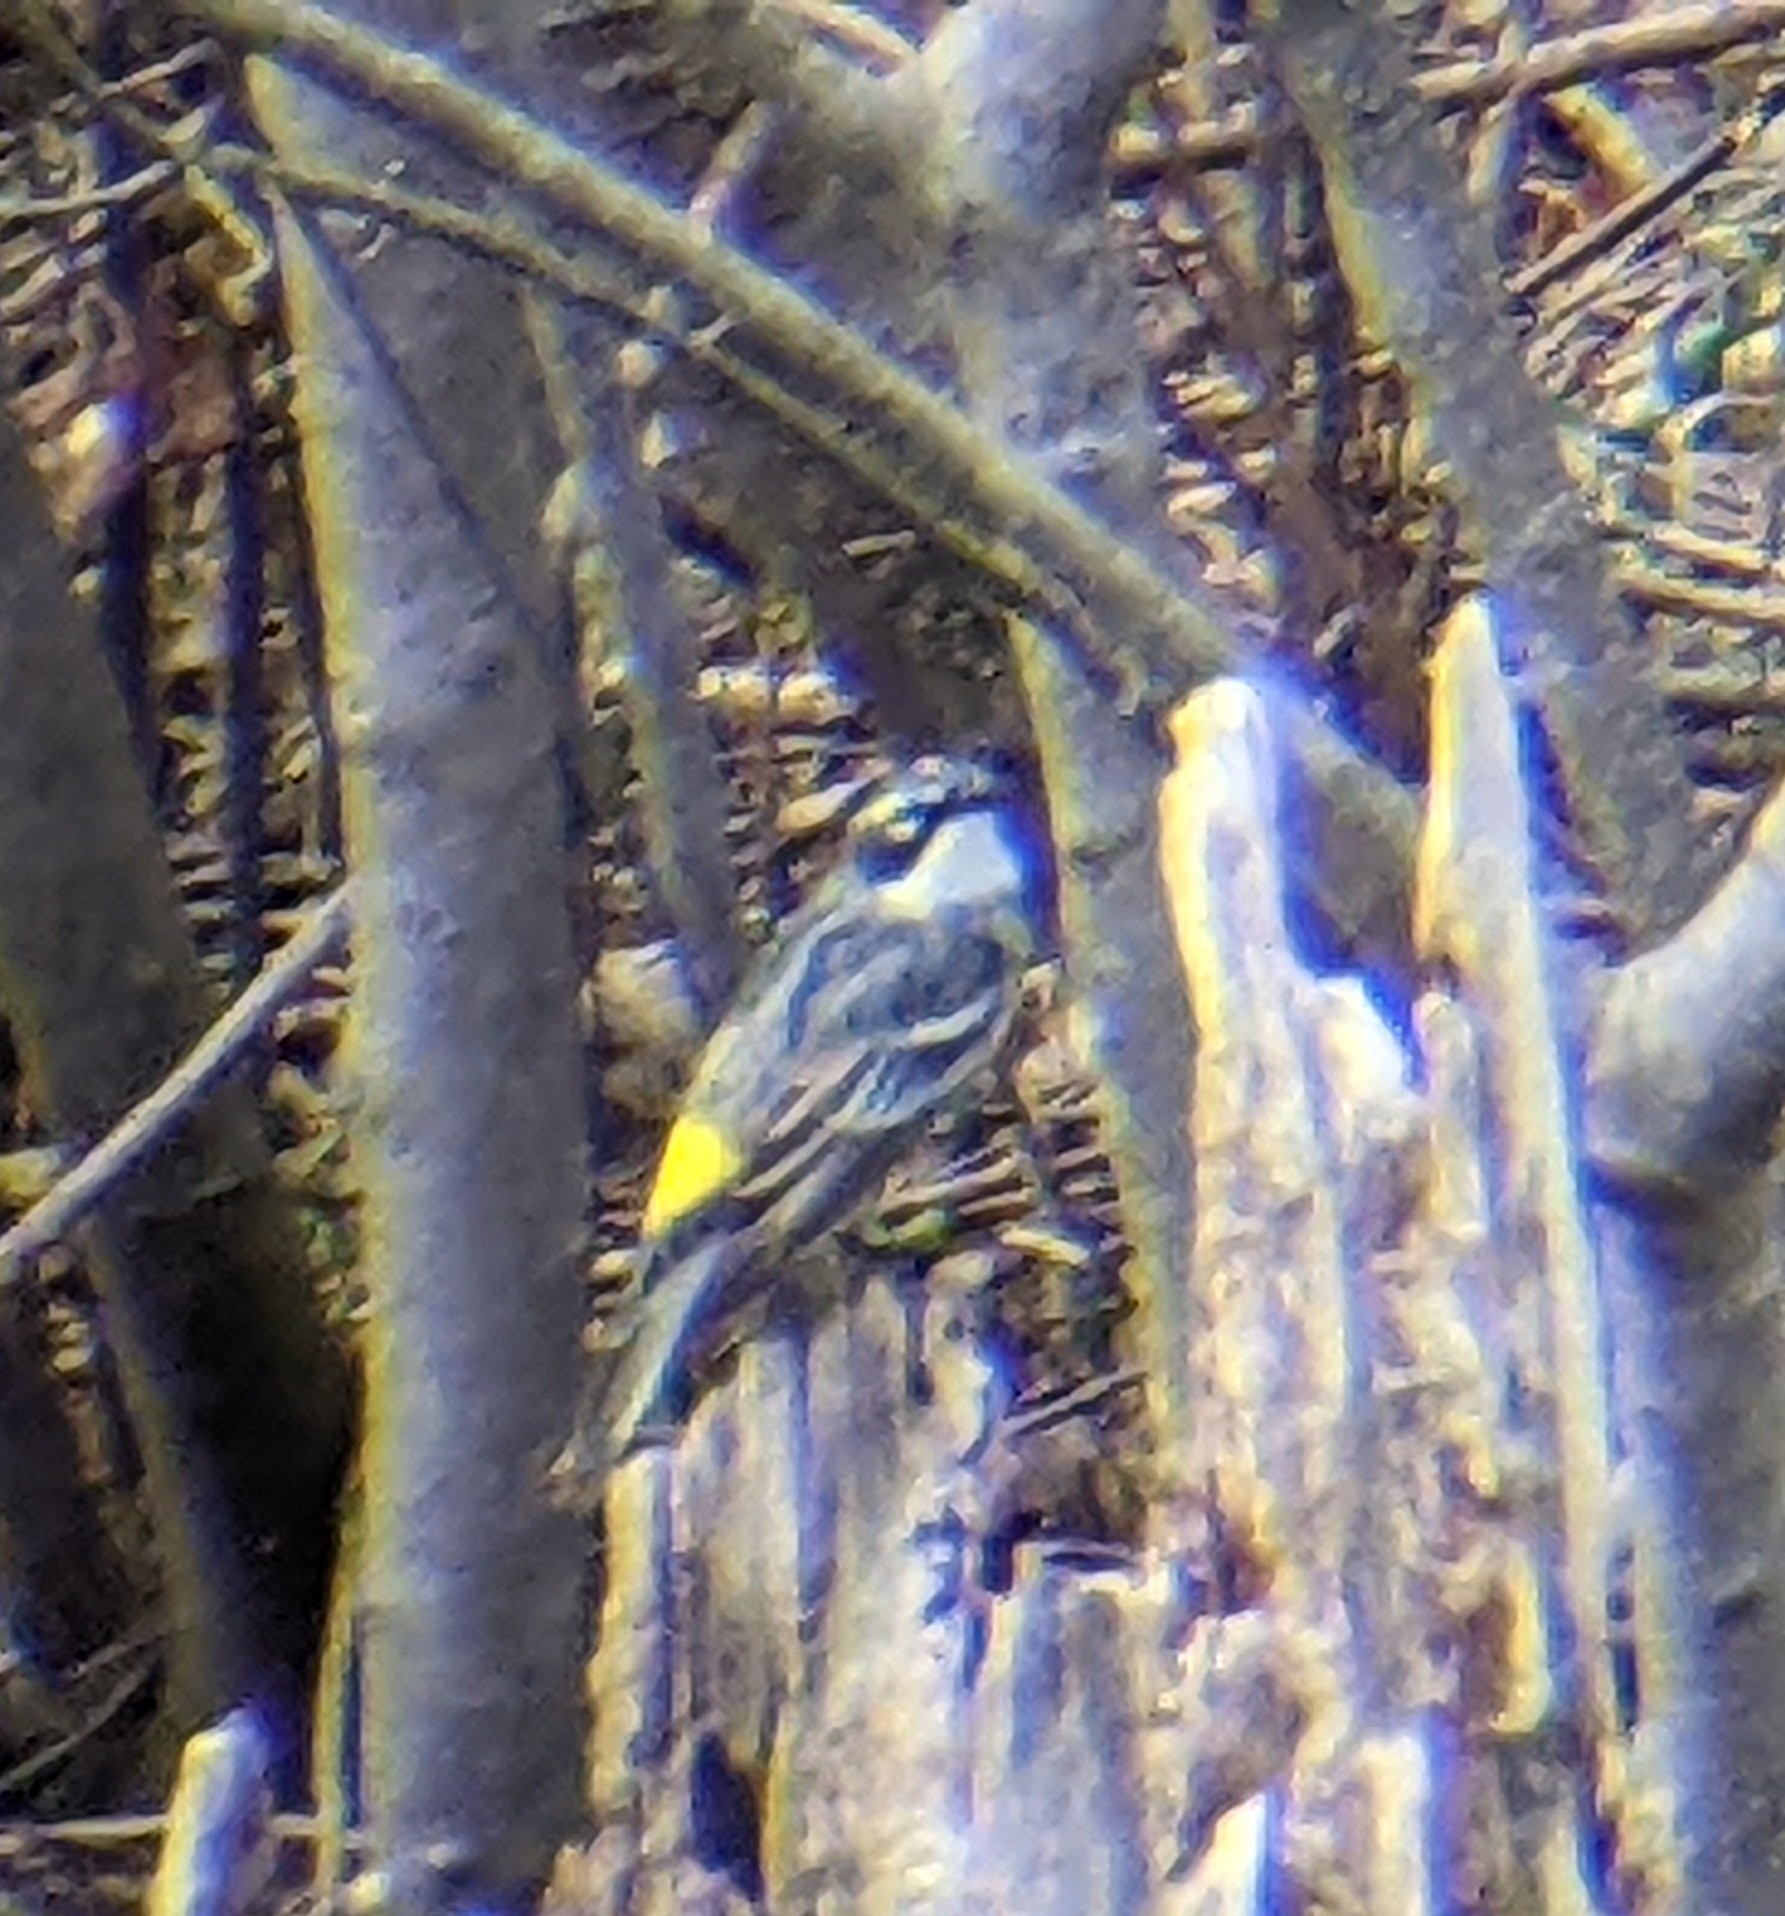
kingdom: Animalia
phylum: Chordata
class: Aves
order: Passeriformes
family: Parulidae
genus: Setophaga
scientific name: Setophaga coronata
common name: Myrtle warbler
